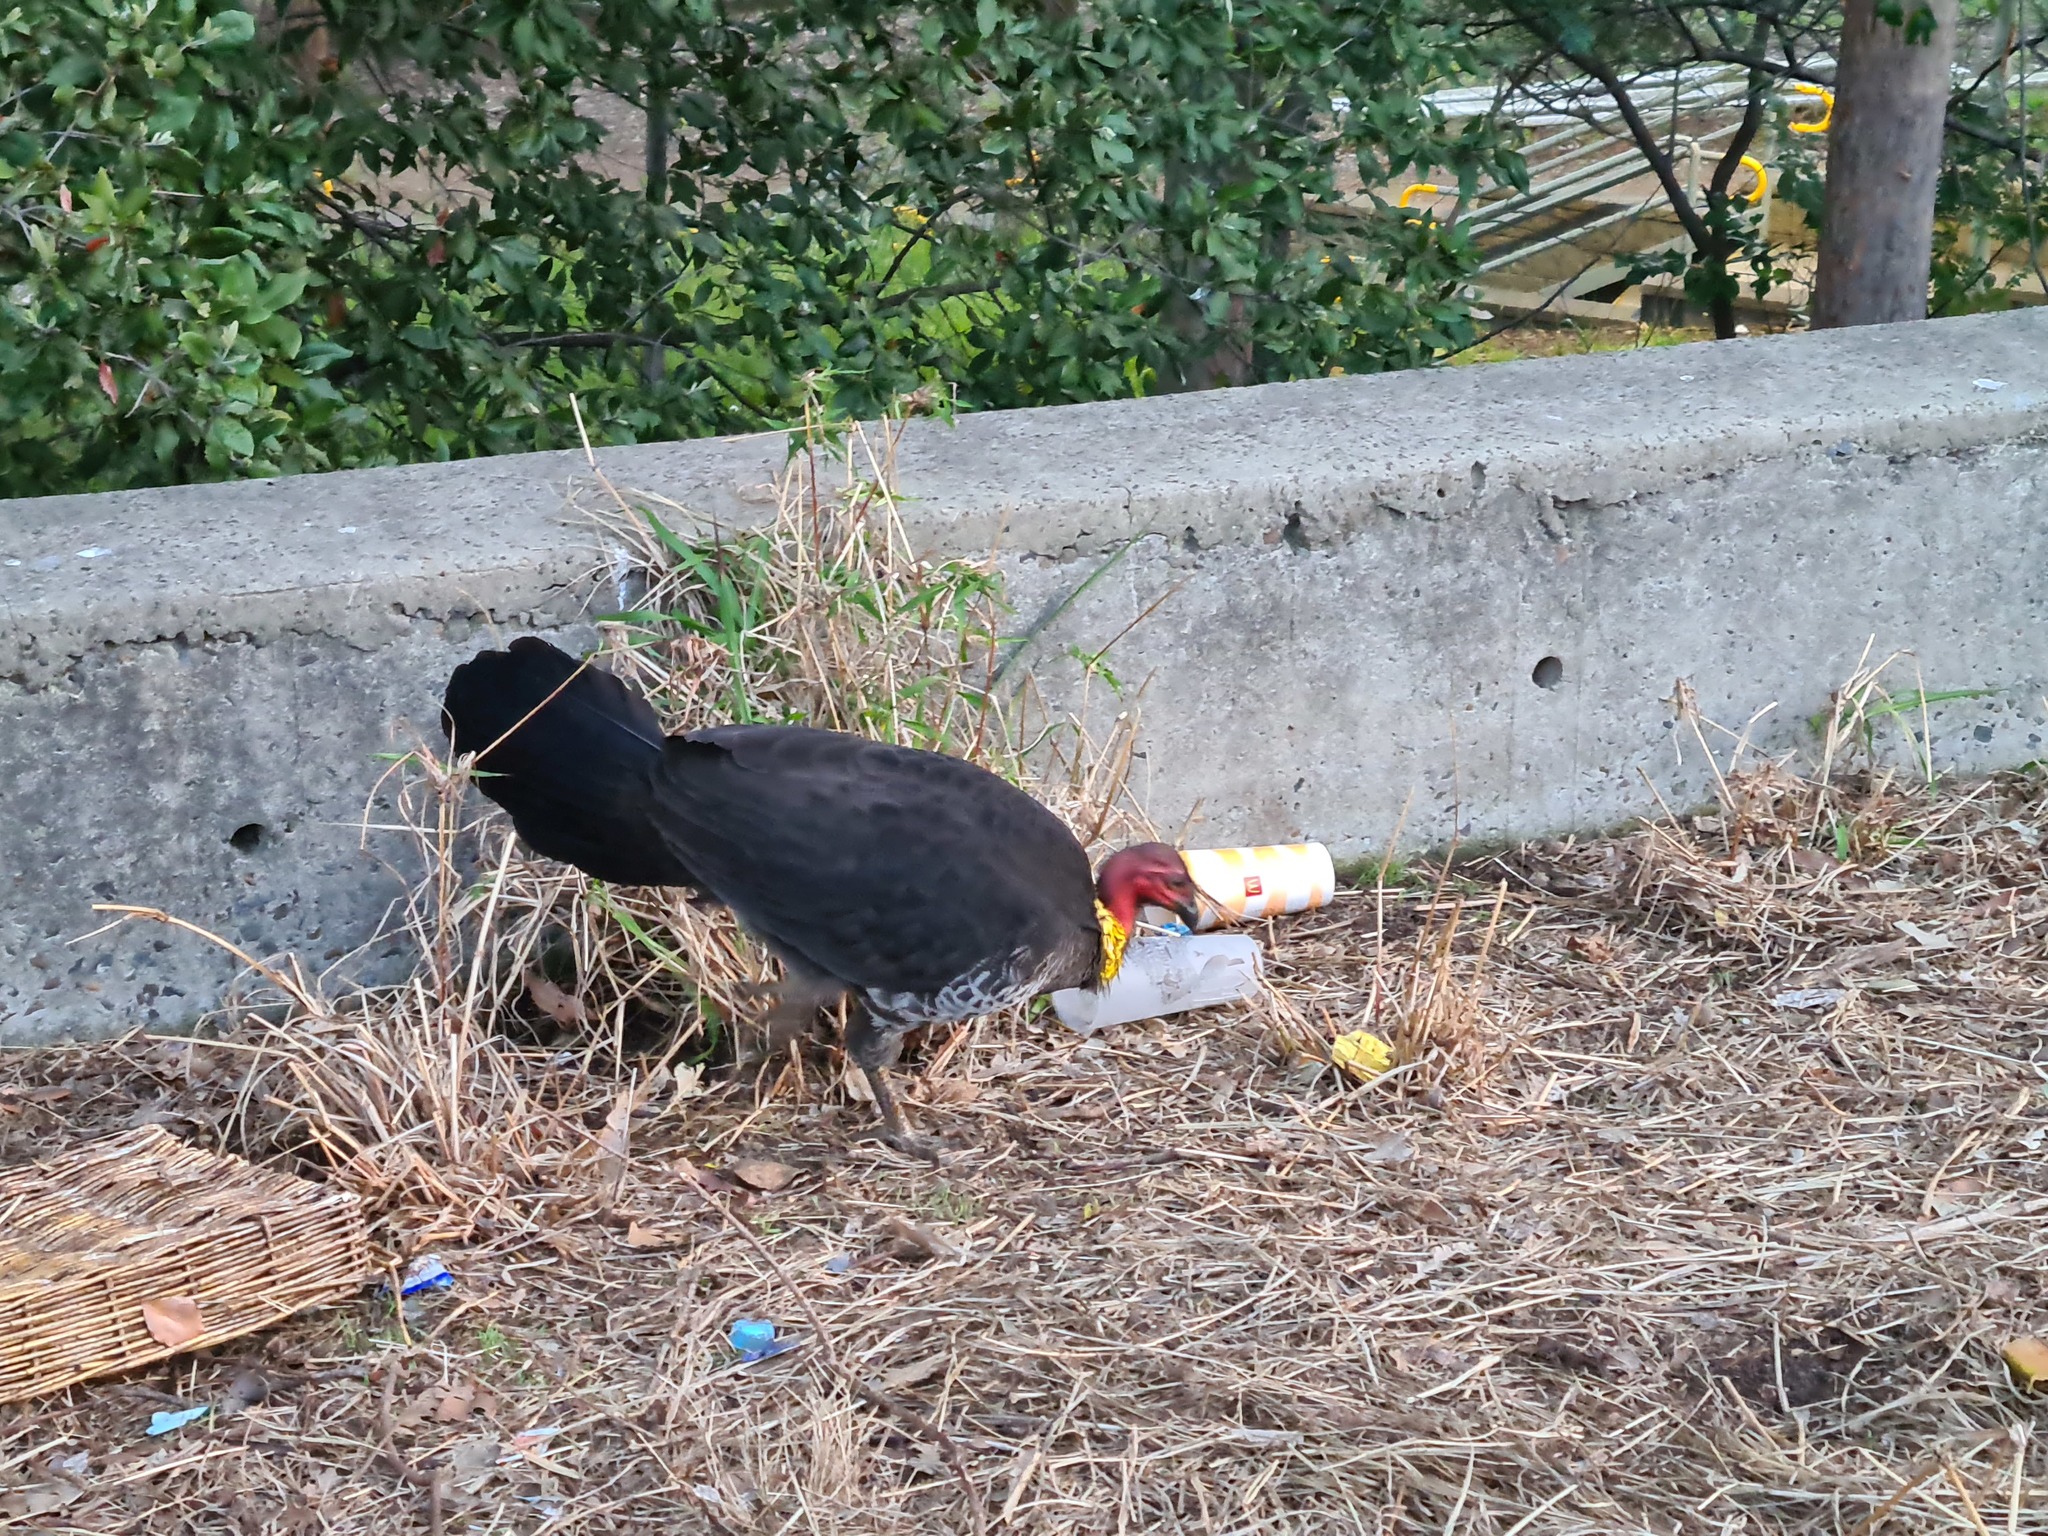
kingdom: Animalia
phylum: Chordata
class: Aves
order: Galliformes
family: Megapodiidae
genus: Alectura
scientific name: Alectura lathami
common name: Australian brushturkey
